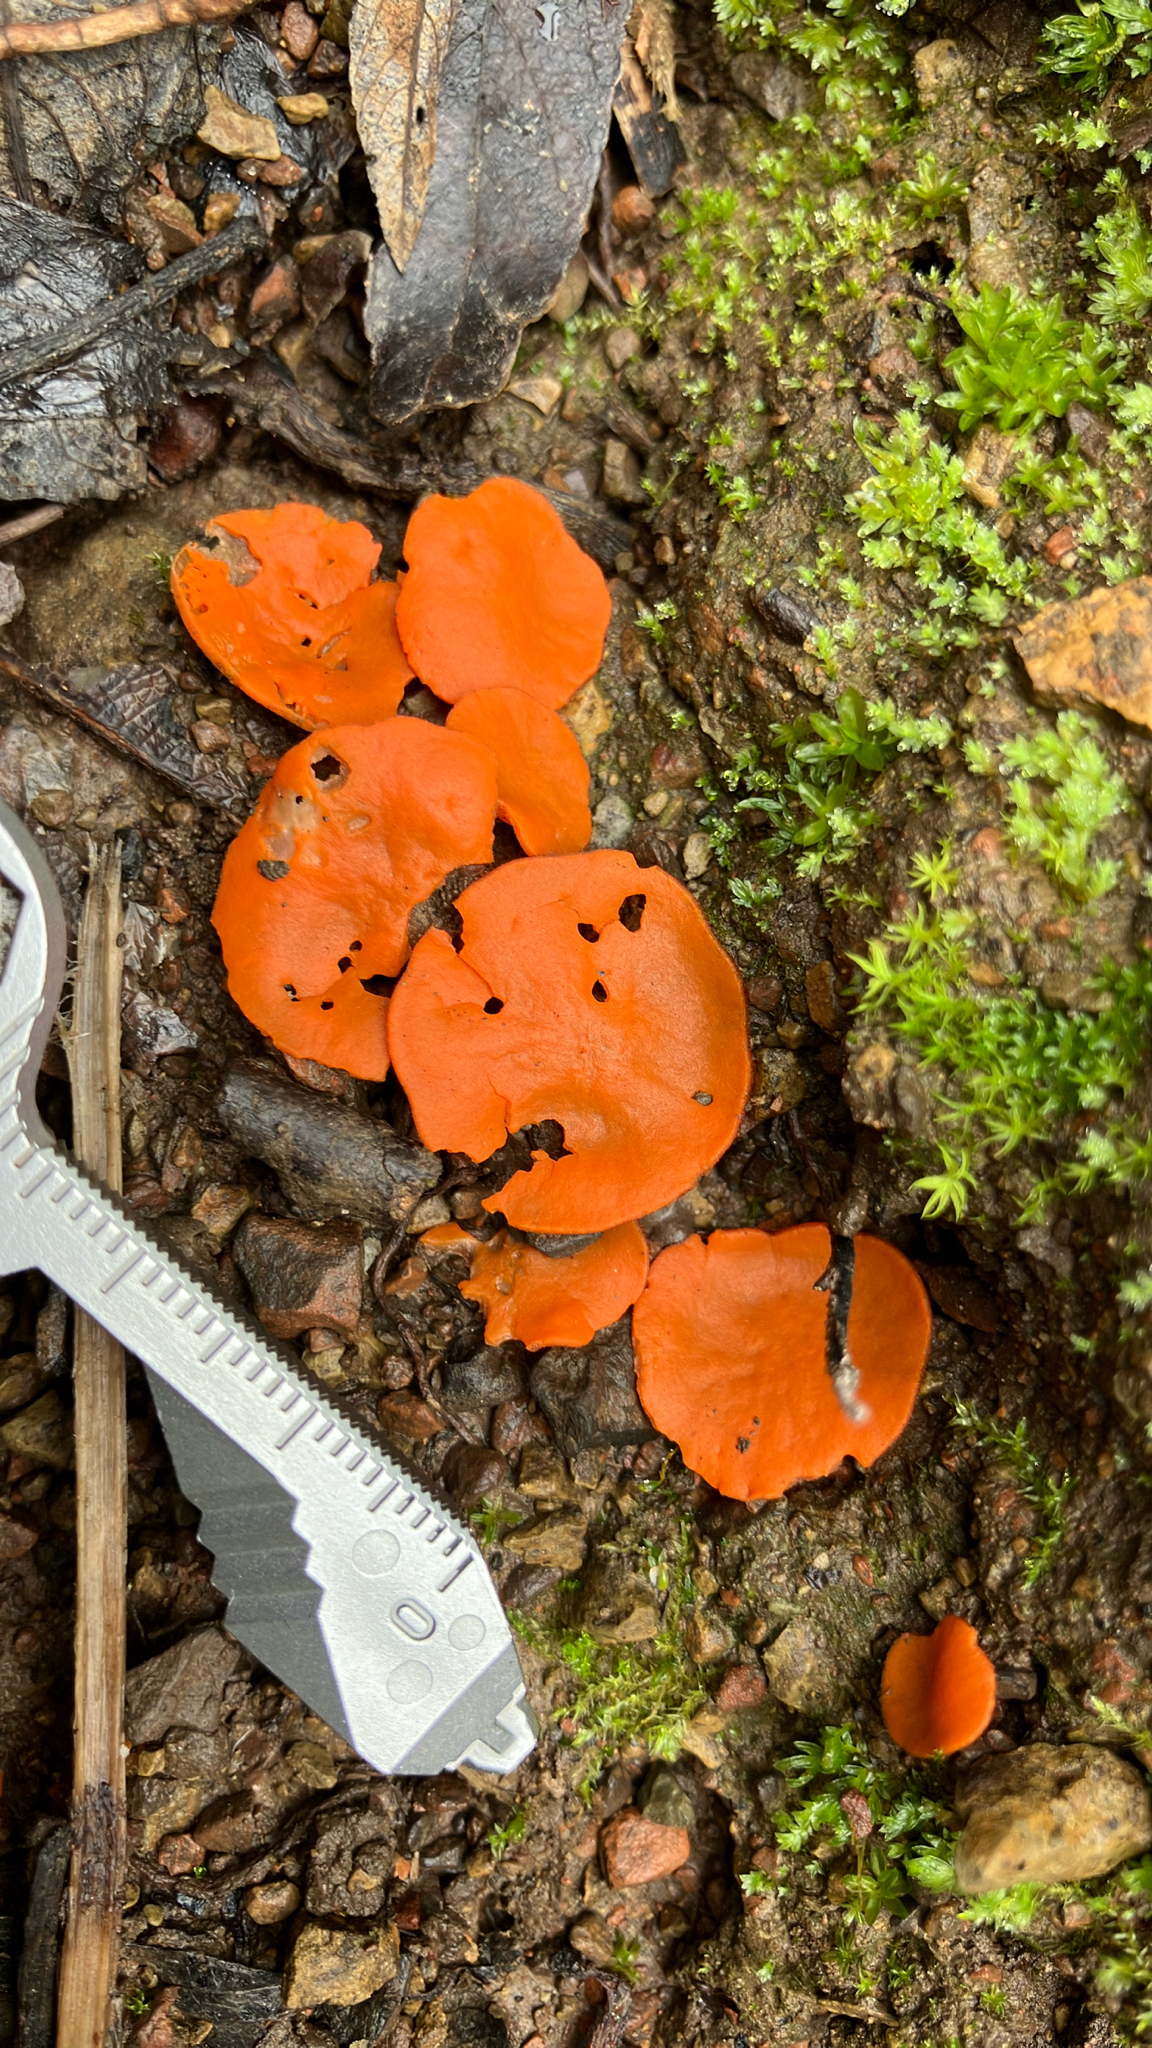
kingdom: Fungi
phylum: Ascomycota
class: Pezizomycetes
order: Pezizales
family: Pyronemataceae
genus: Aleuria
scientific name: Aleuria aurantia
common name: Orange peel fungus
